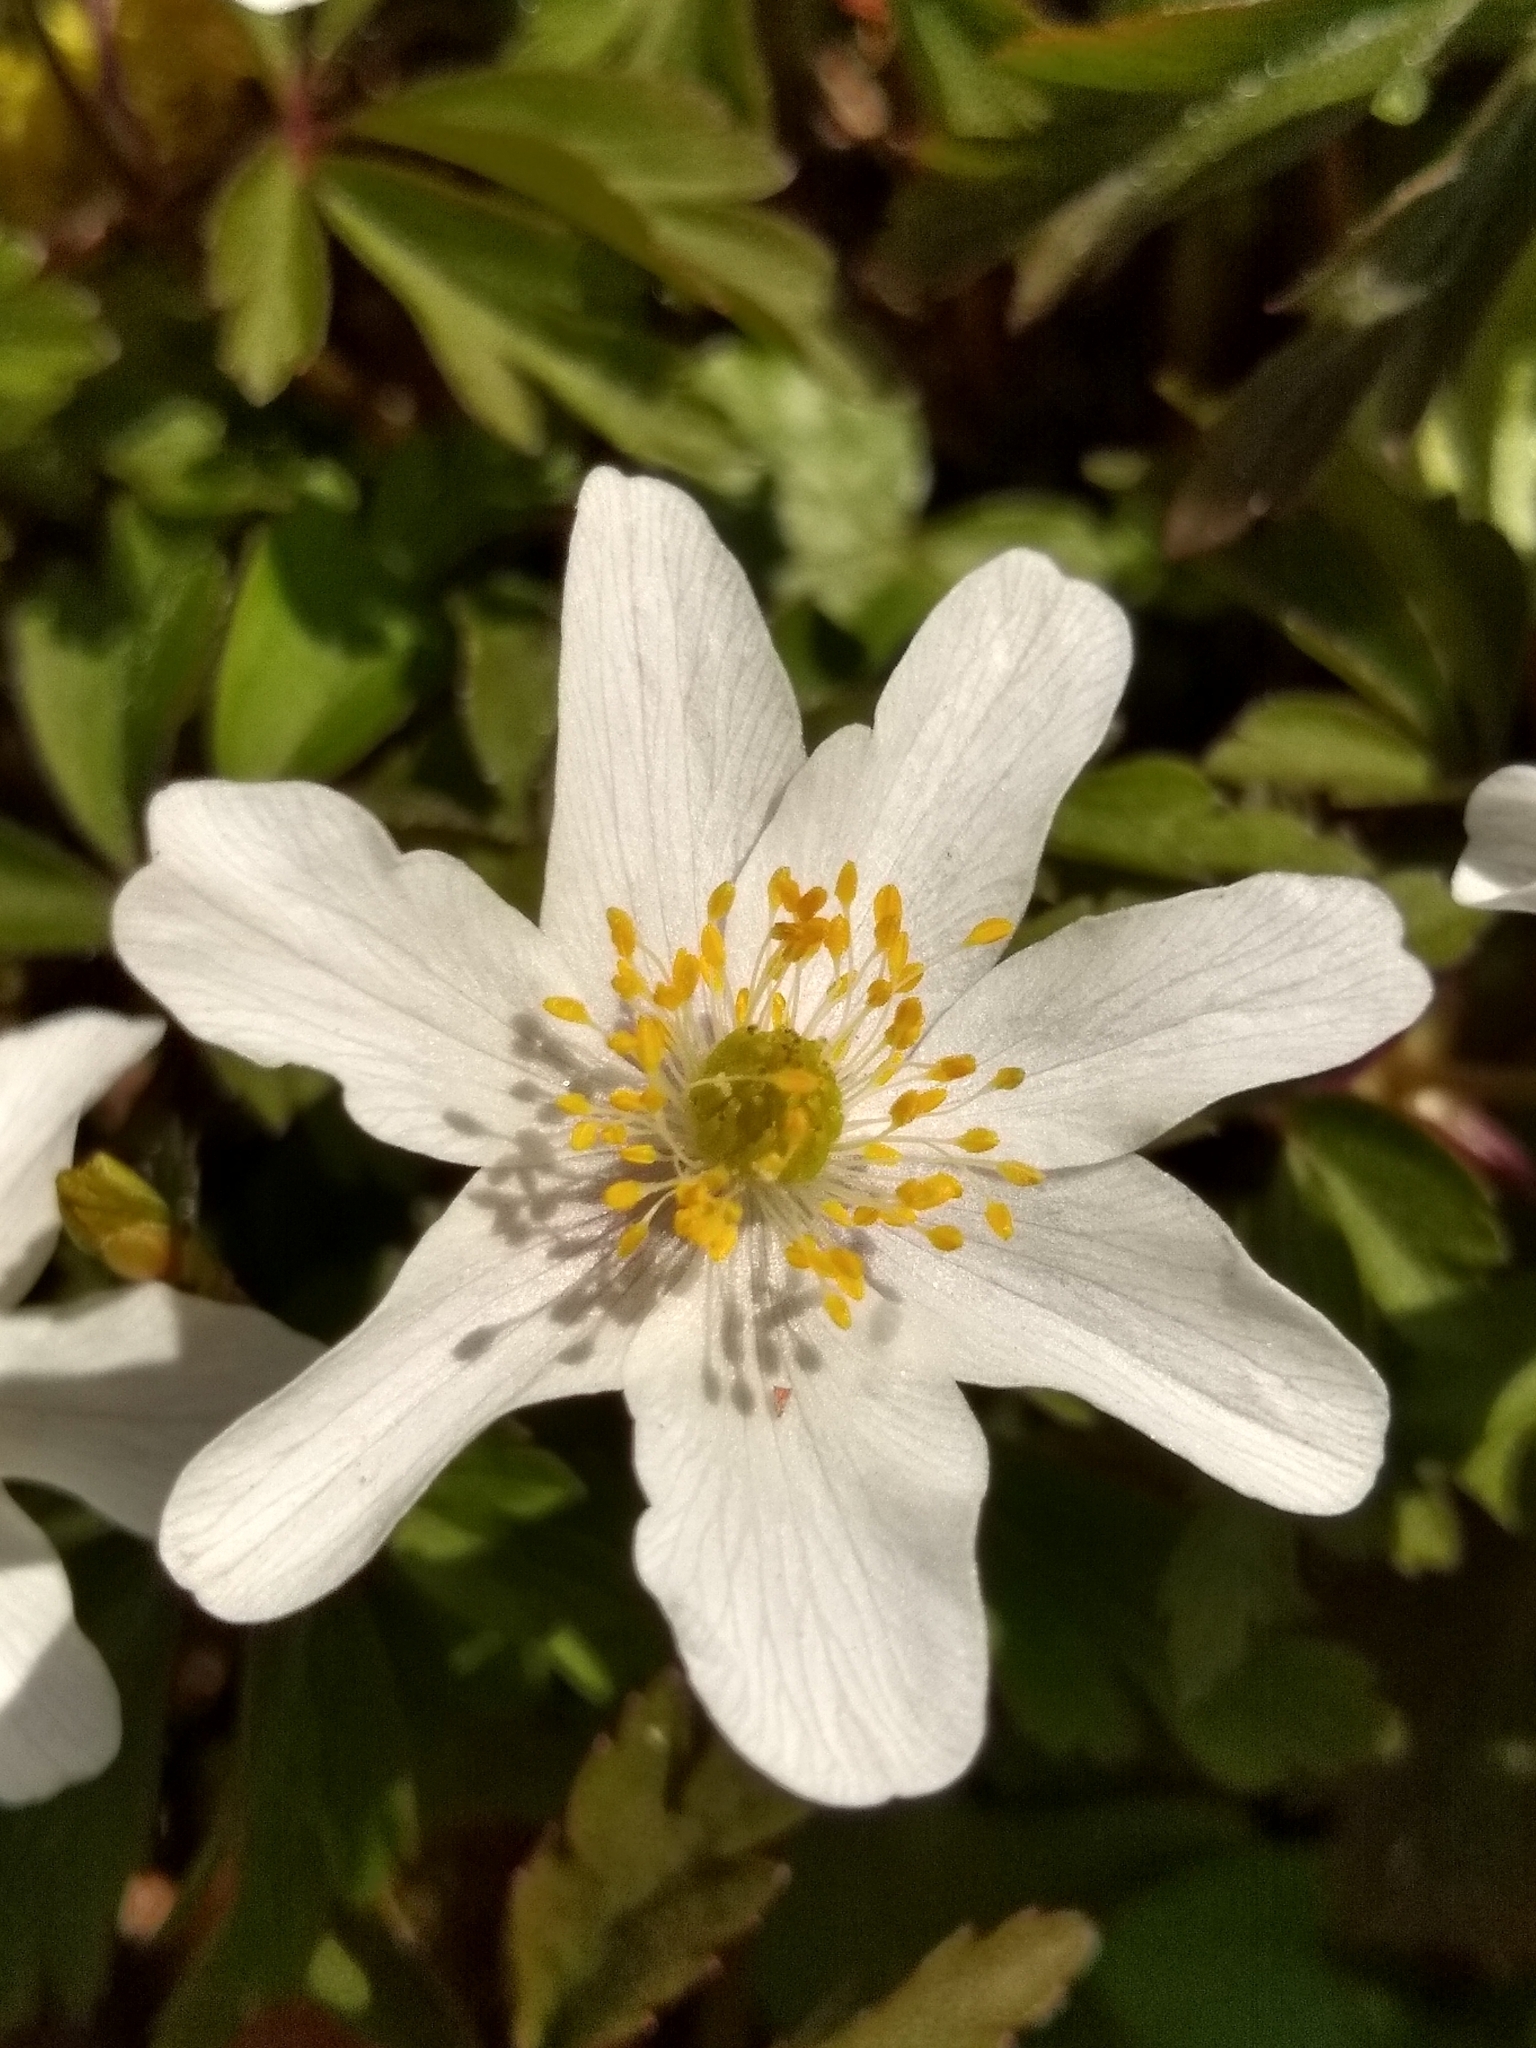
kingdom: Plantae
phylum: Tracheophyta
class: Magnoliopsida
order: Ranunculales
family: Ranunculaceae
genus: Anemone
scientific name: Anemone nemorosa
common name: Wood anemone
